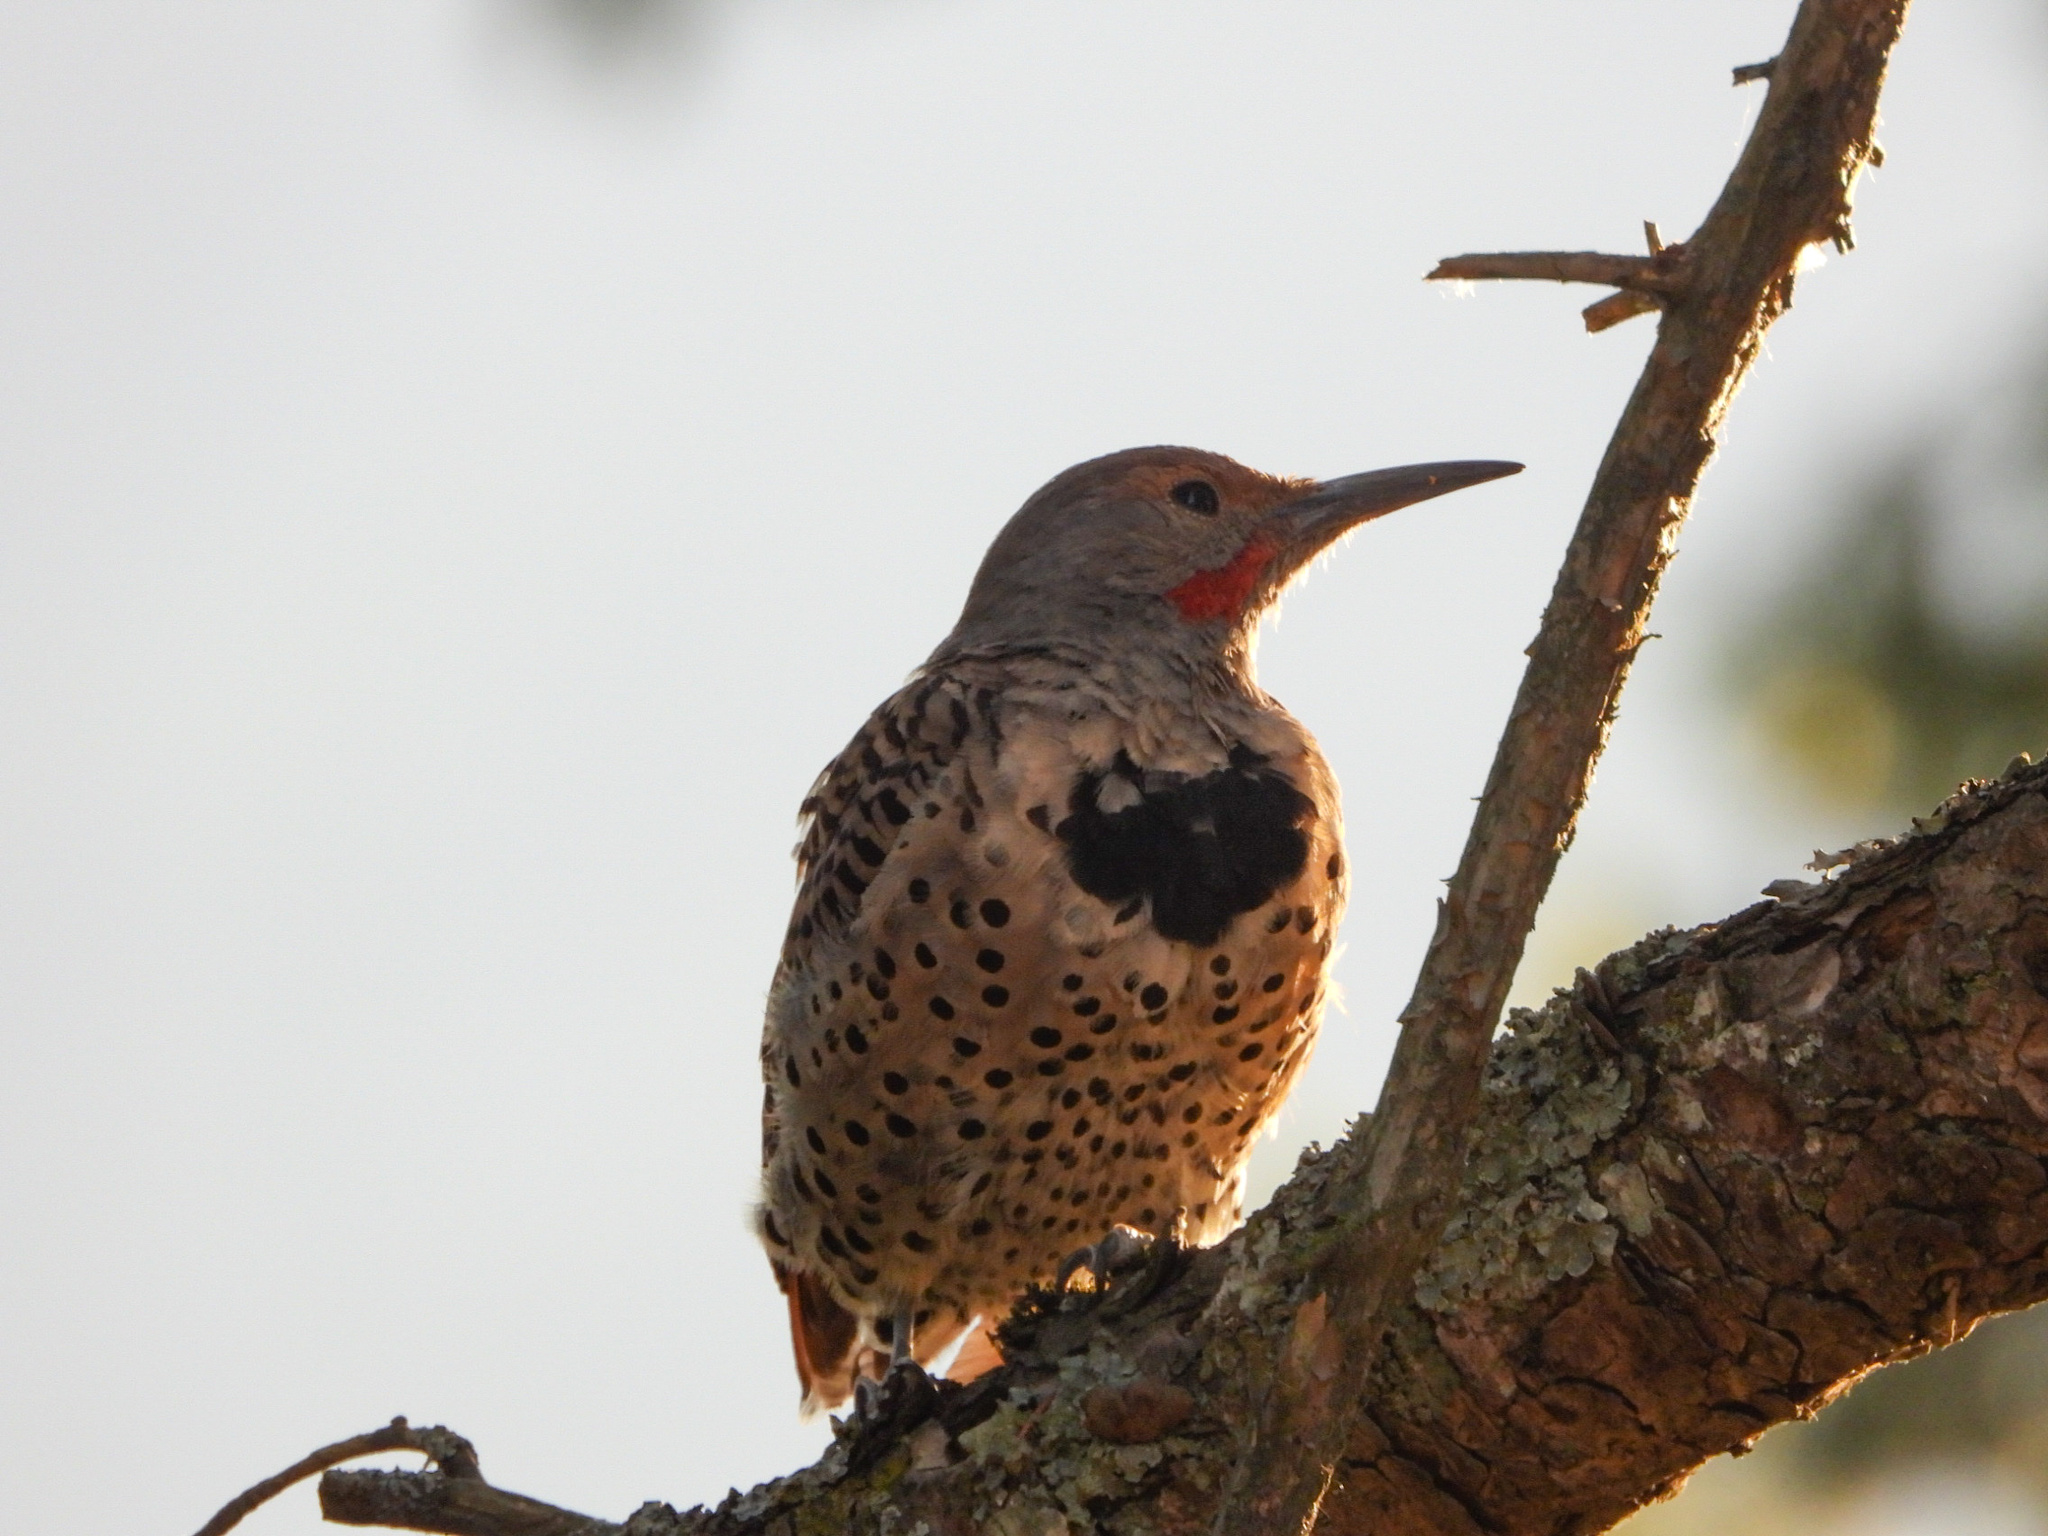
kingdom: Animalia
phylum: Chordata
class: Aves
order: Piciformes
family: Picidae
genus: Colaptes
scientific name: Colaptes auratus
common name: Northern flicker
